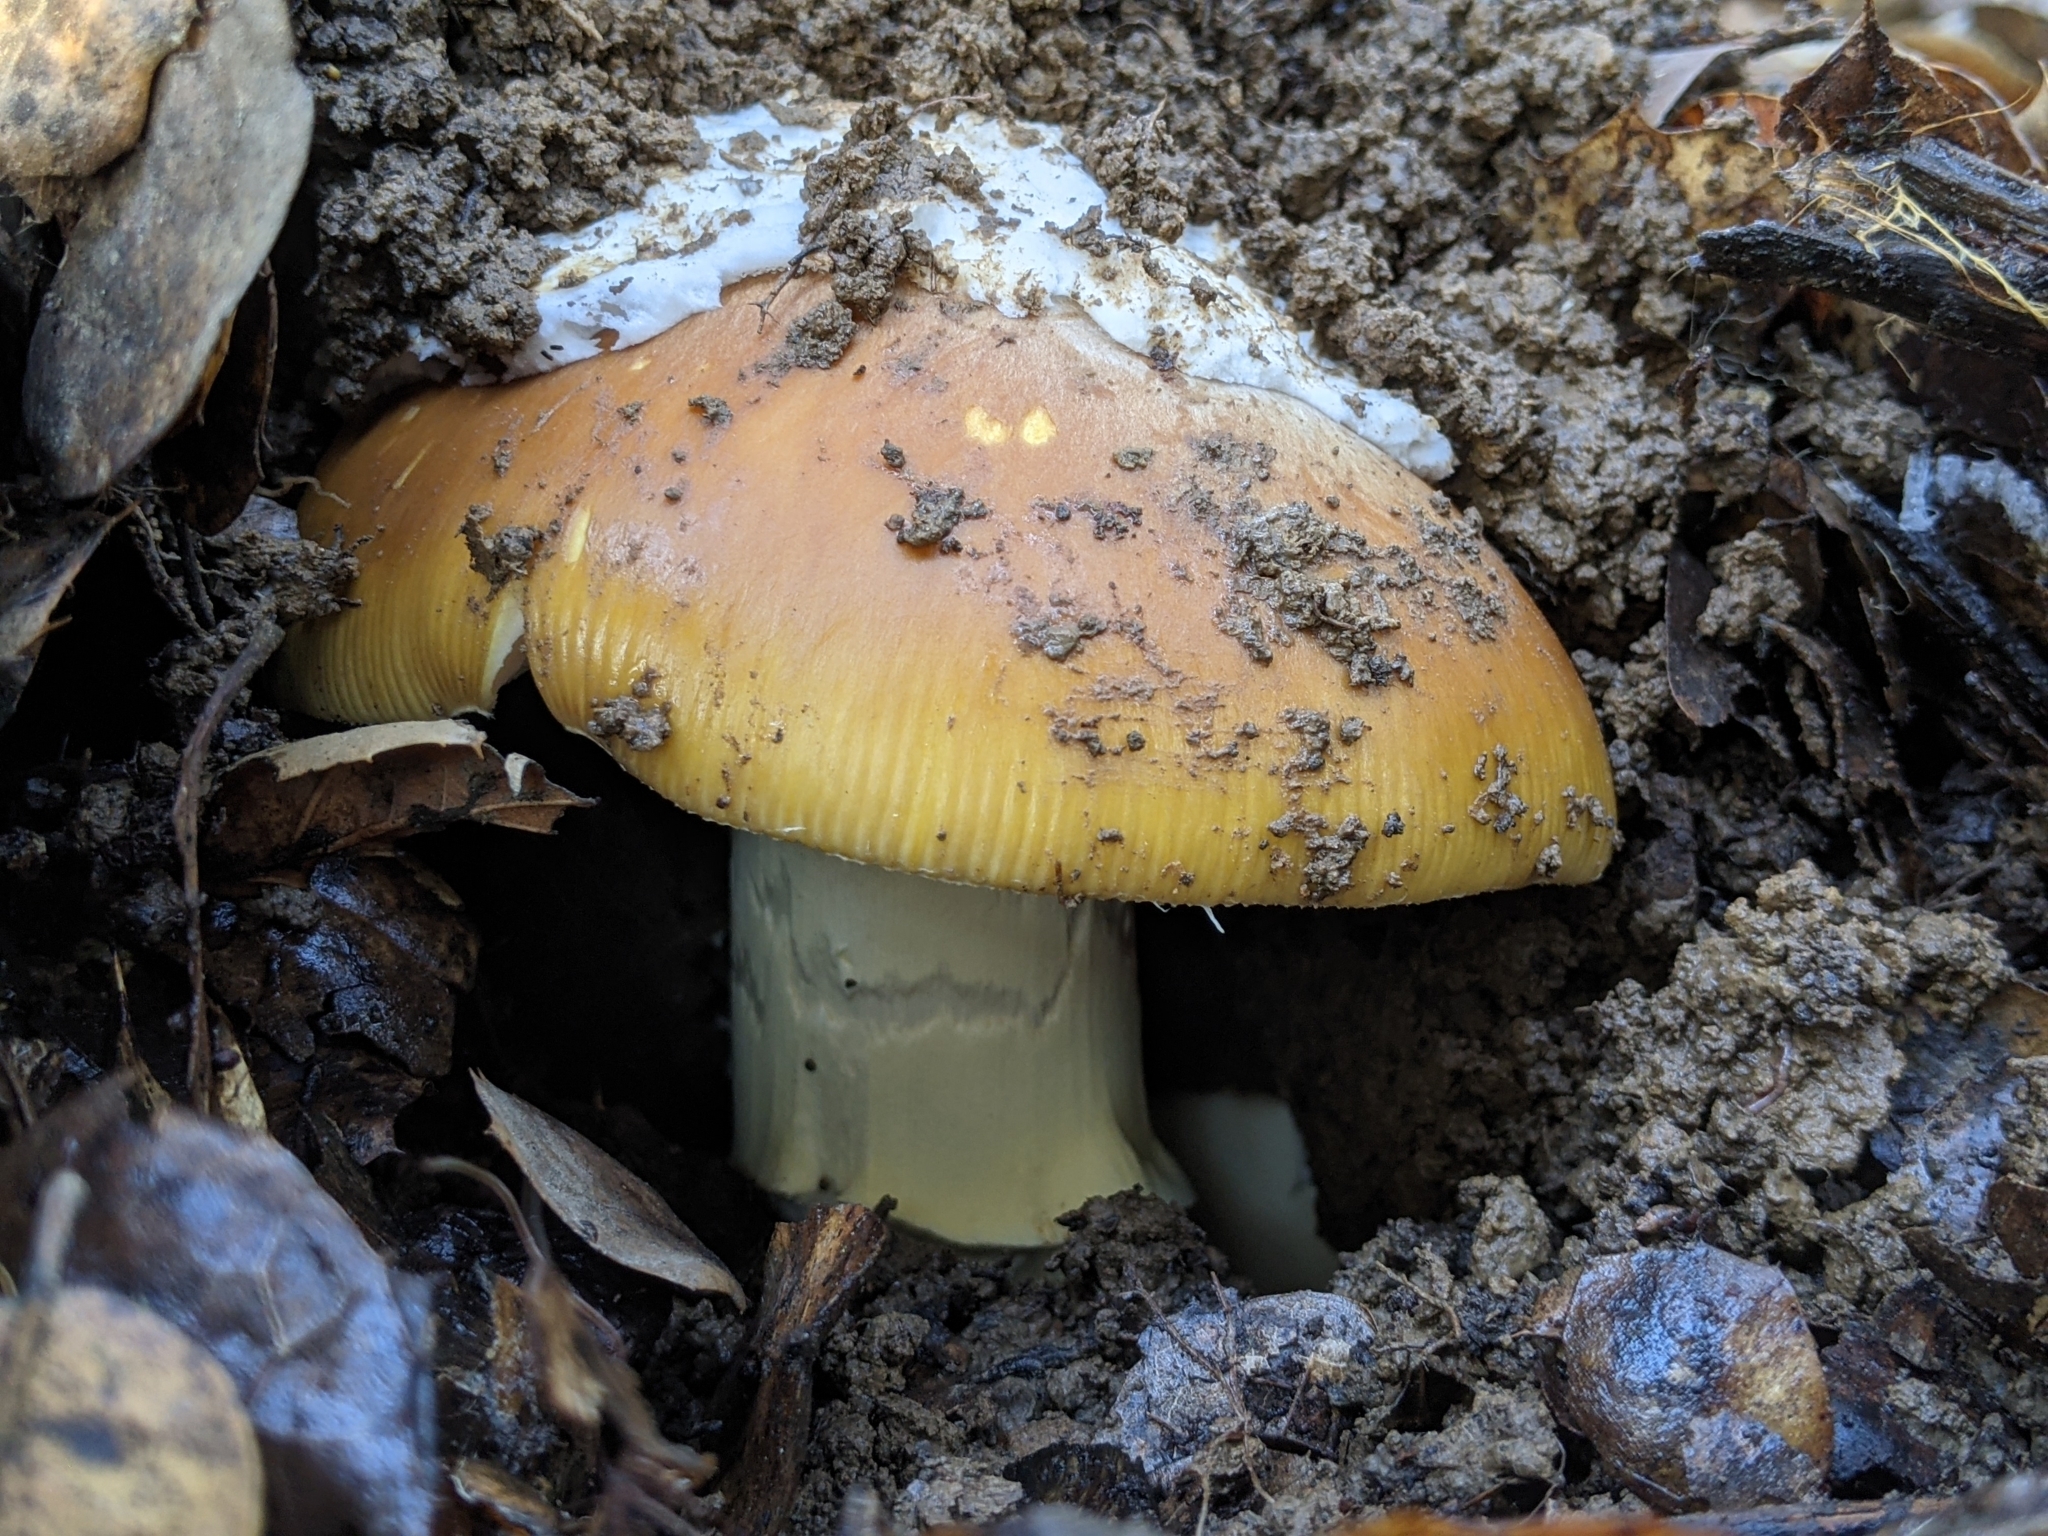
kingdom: Fungi
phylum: Basidiomycota
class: Agaricomycetes
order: Agaricales
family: Amanitaceae
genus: Amanita
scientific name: Amanita calyptroderma
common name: Coccora
